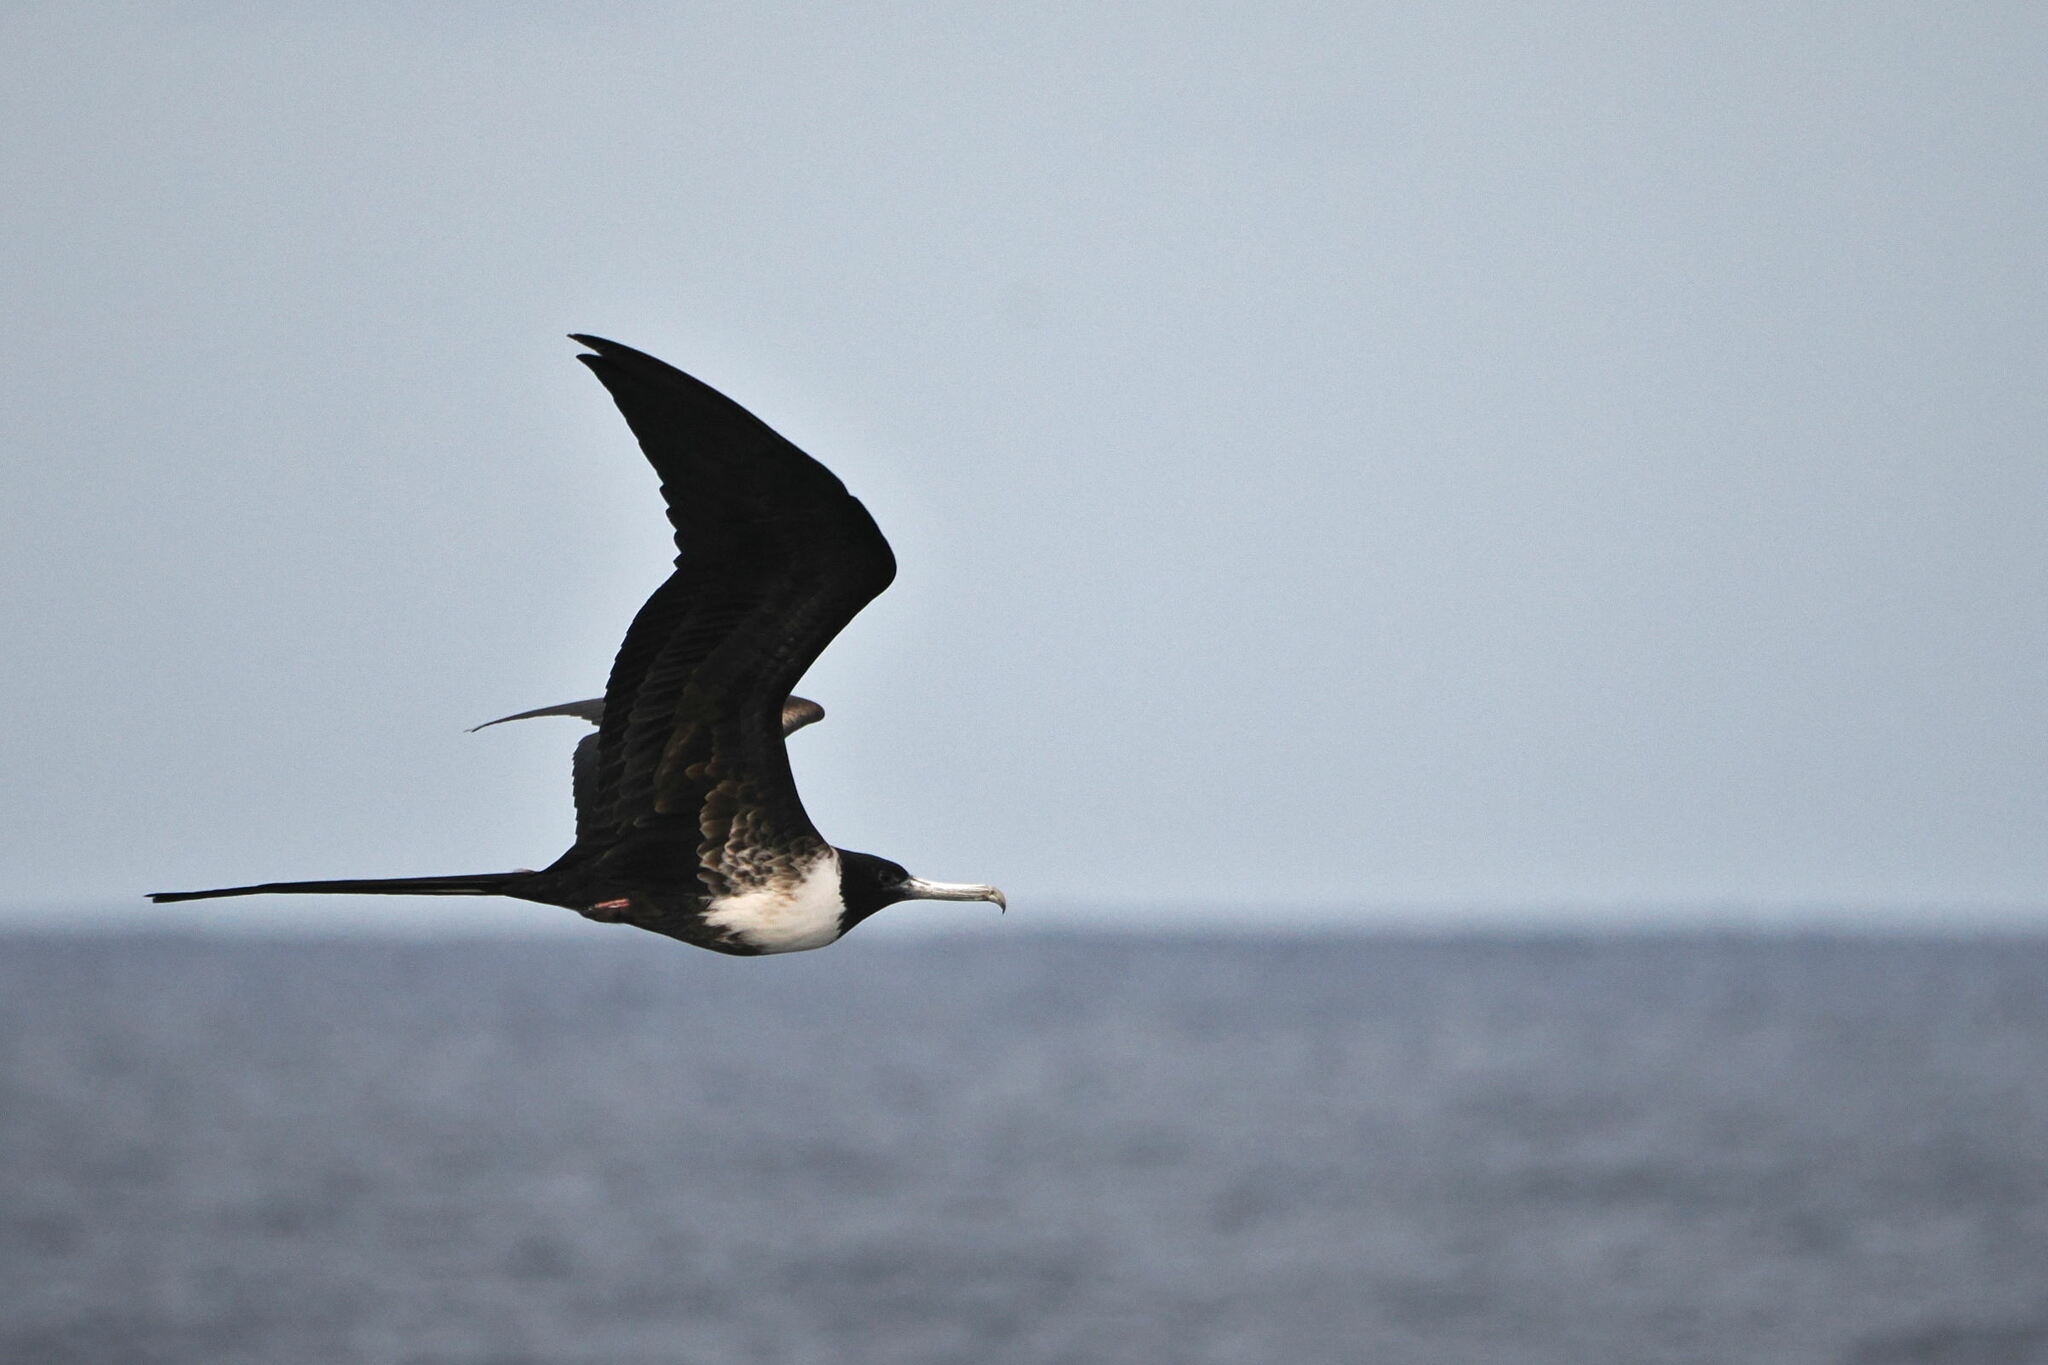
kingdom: Animalia
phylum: Chordata
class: Aves
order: Suliformes
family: Fregatidae
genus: Fregata
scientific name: Fregata magnificens
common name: Magnificent frigatebird
